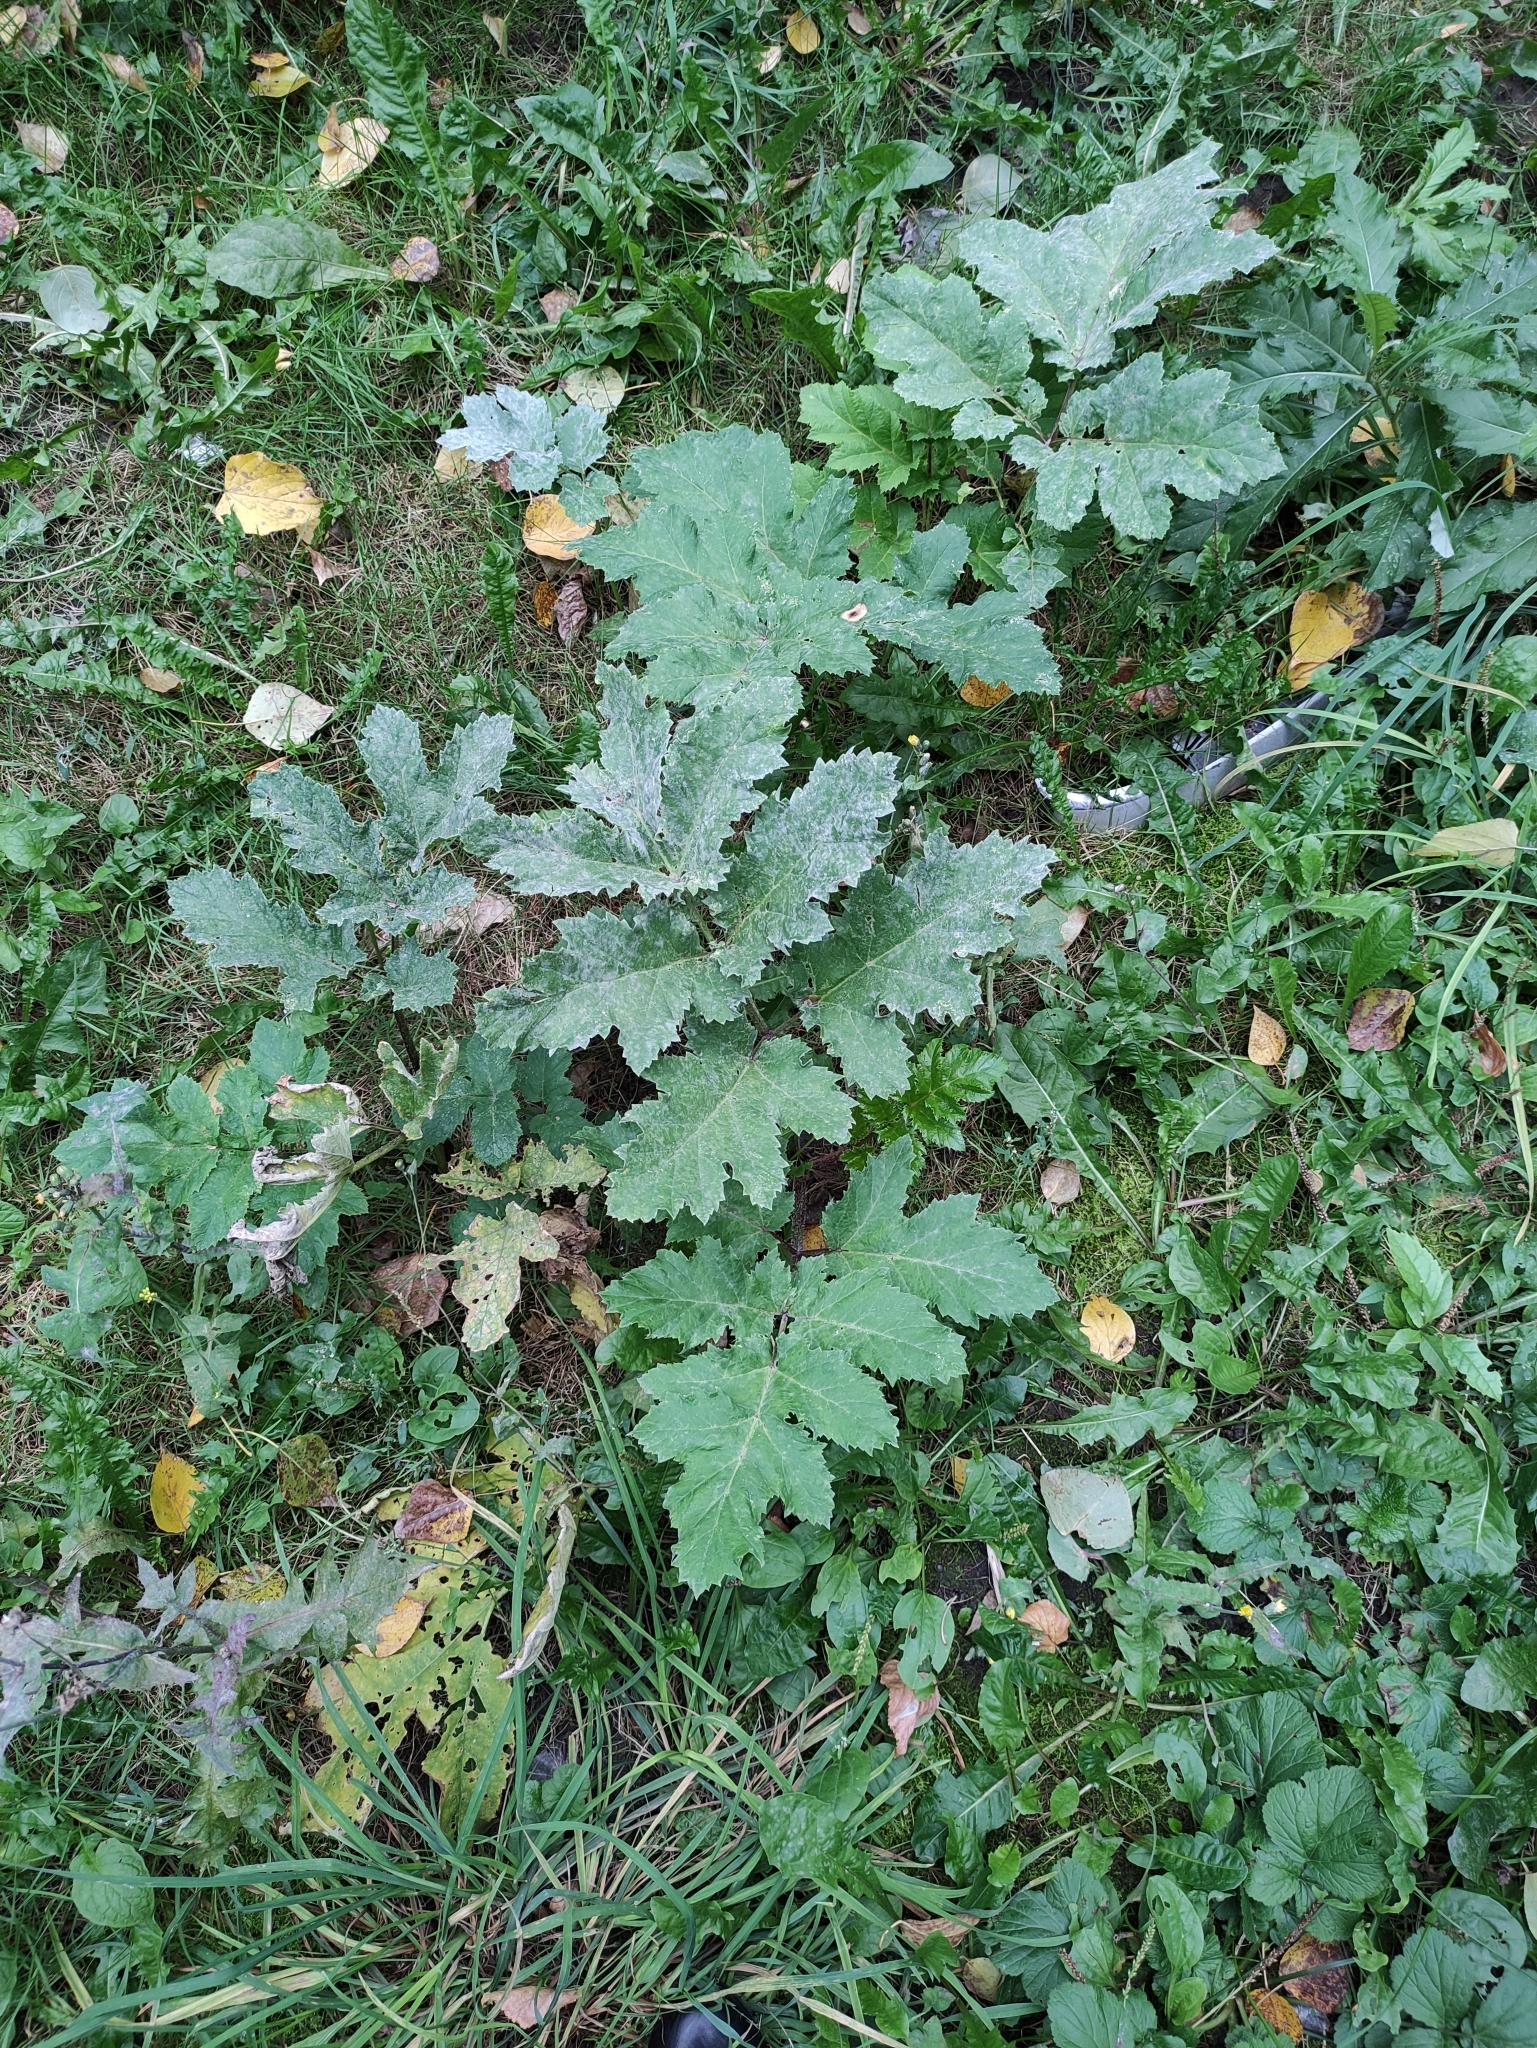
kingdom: Plantae
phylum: Tracheophyta
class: Magnoliopsida
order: Apiales
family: Apiaceae
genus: Heracleum
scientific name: Heracleum sosnowskyi
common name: Sosnowsky's hogweed
